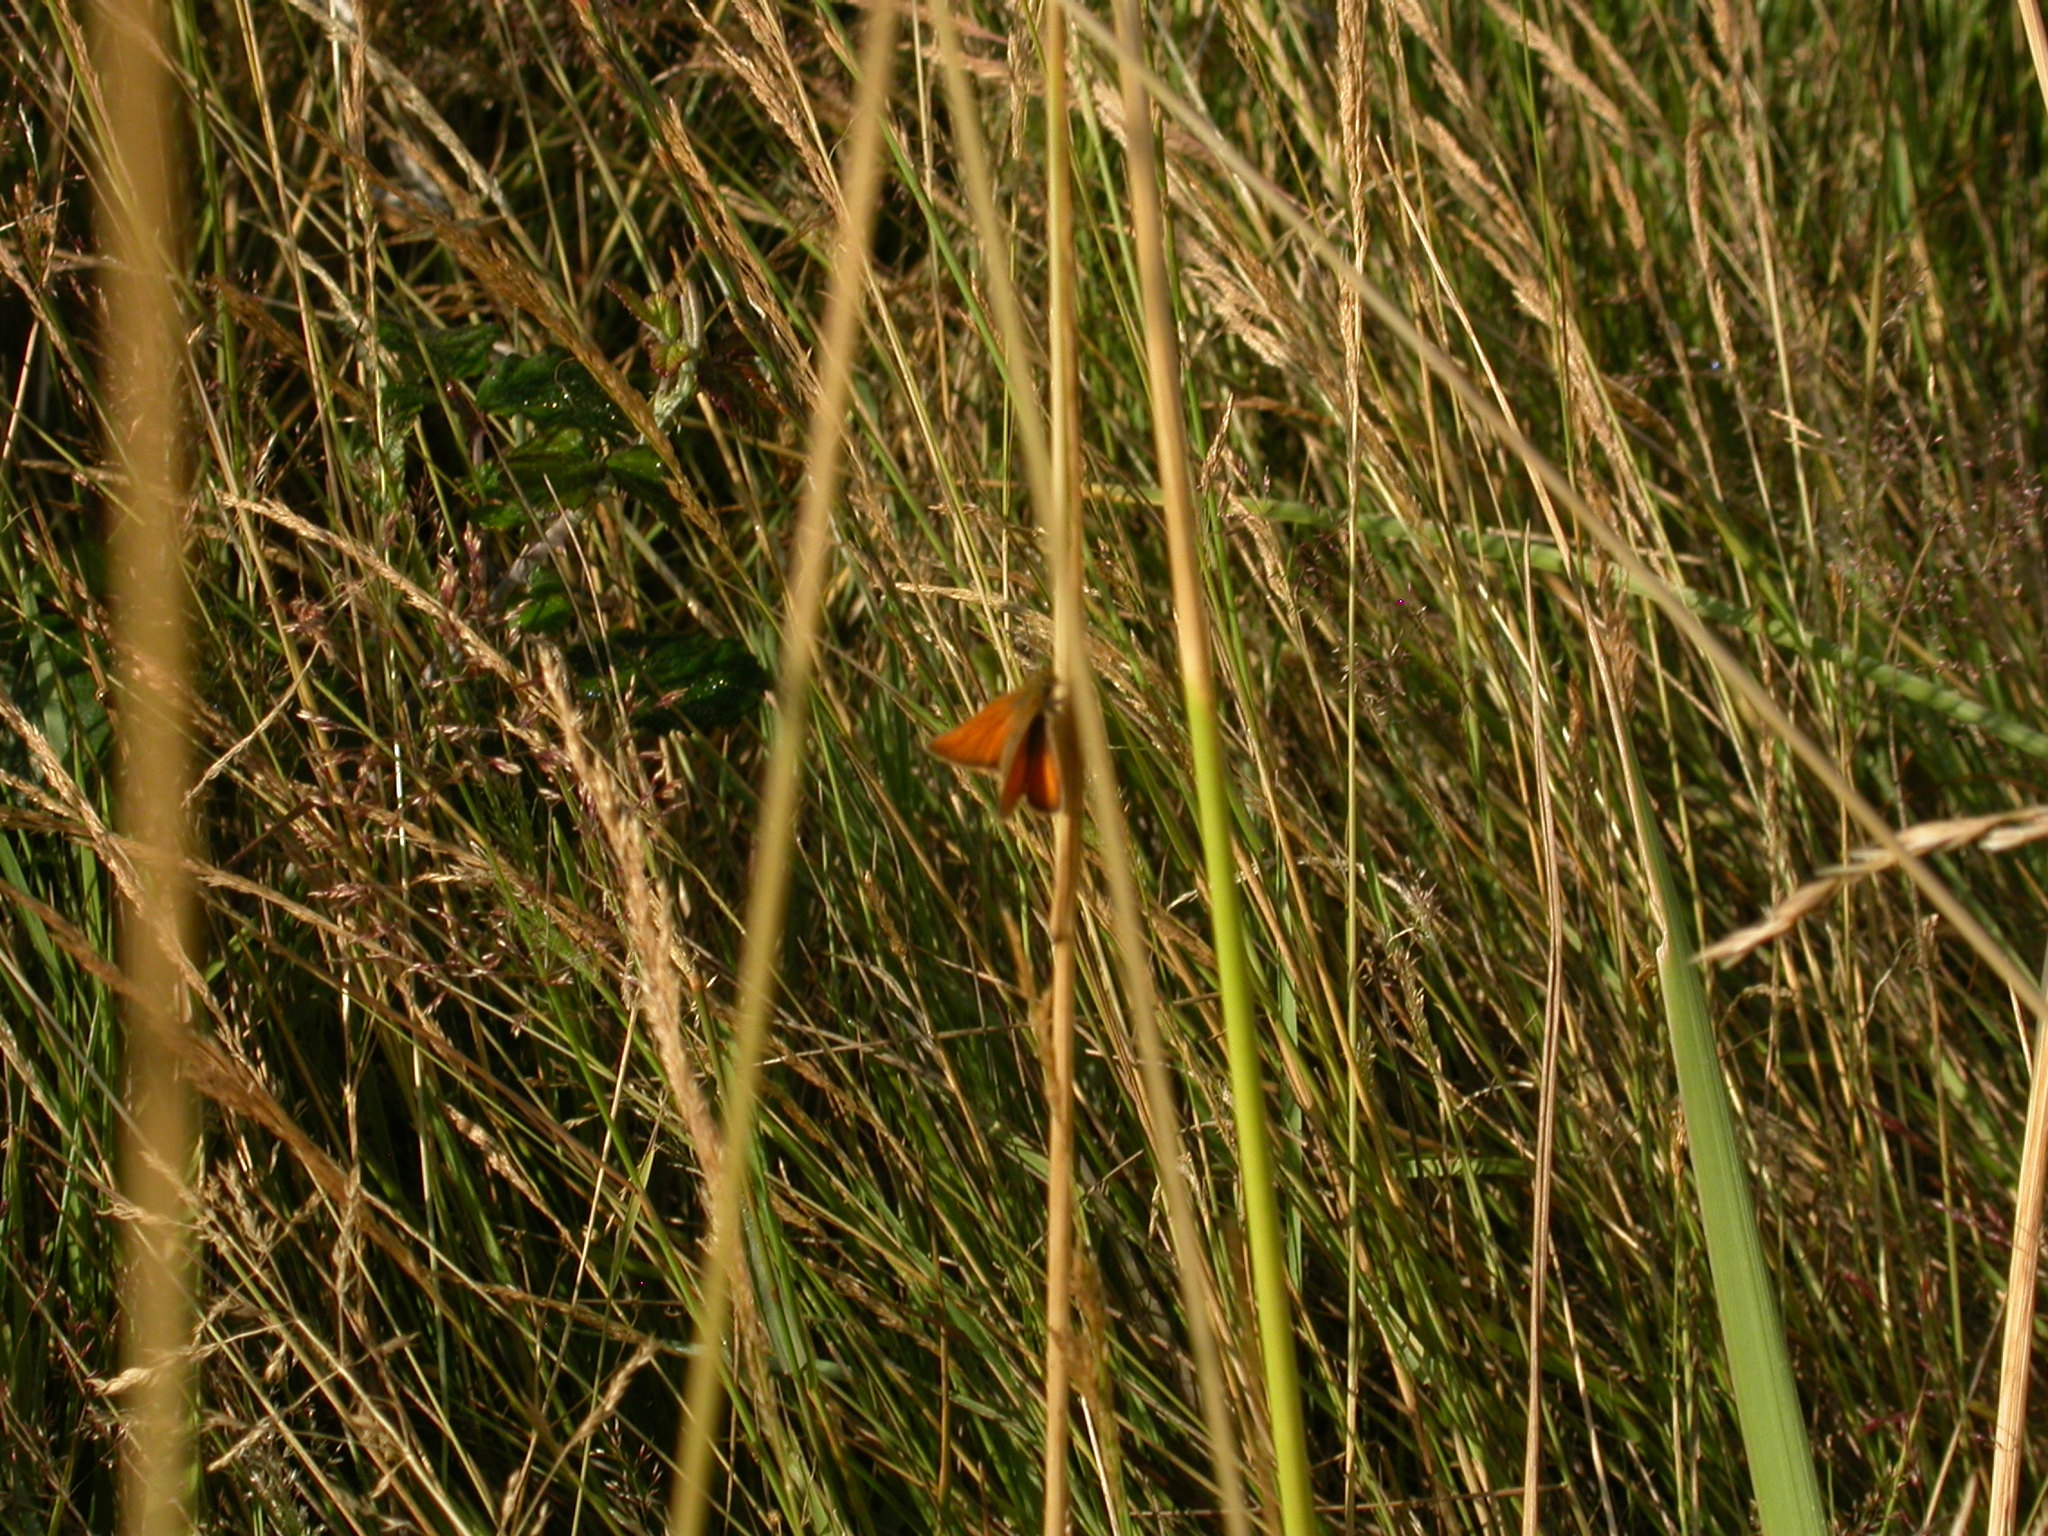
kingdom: Animalia
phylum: Arthropoda
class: Insecta
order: Lepidoptera
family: Hesperiidae
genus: Thymelicus
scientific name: Thymelicus
